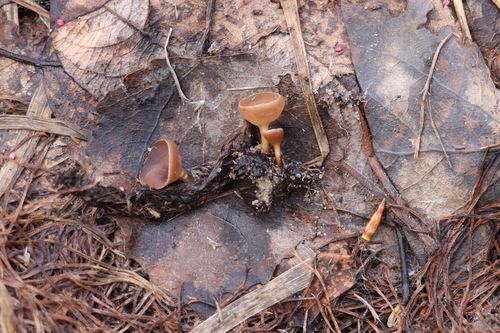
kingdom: Fungi
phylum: Ascomycota
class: Leotiomycetes
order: Helotiales
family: Sclerotiniaceae
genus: Ciboria
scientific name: Ciboria caucus
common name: Alder goblet
